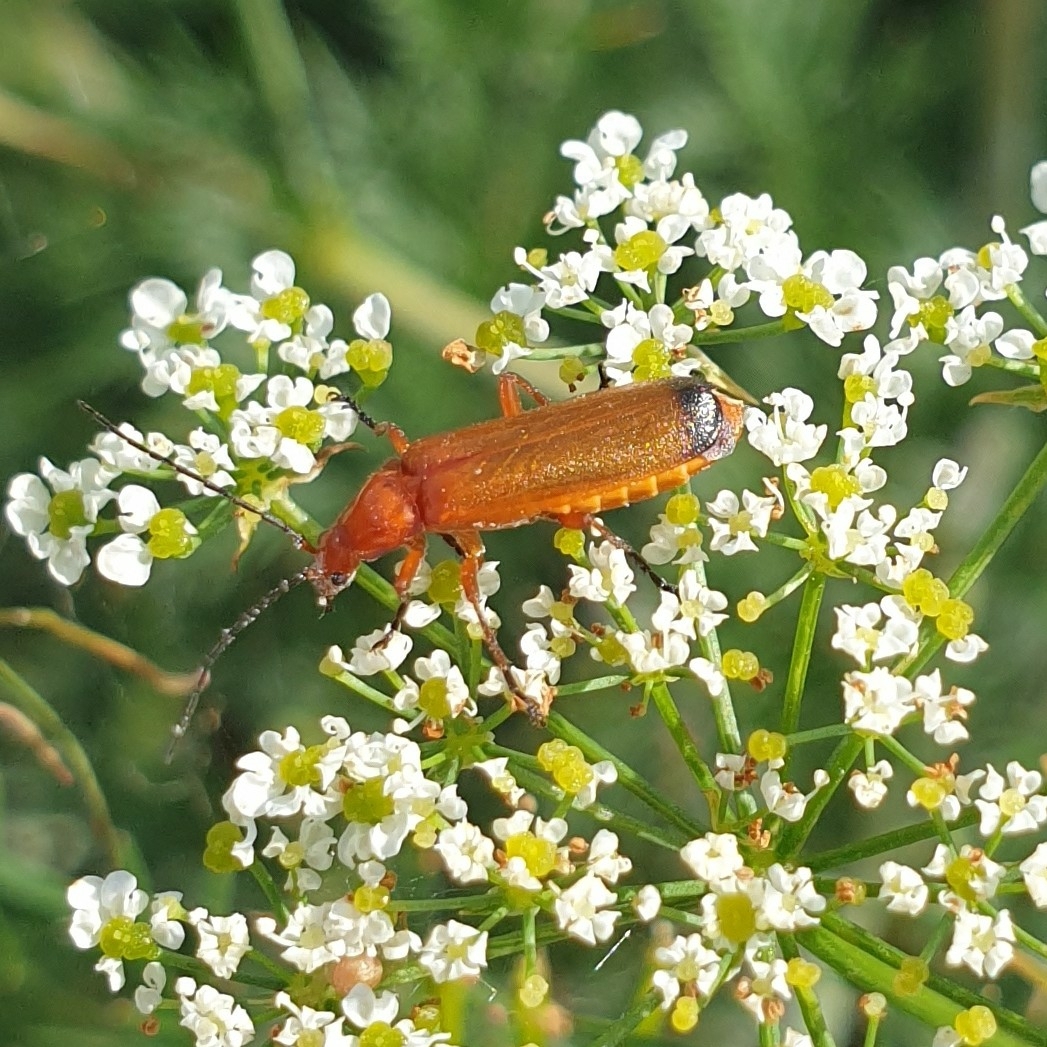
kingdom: Animalia
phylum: Arthropoda
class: Insecta
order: Coleoptera
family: Cantharidae
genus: Rhagonycha
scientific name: Rhagonycha fulva
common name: Common red soldier beetle
